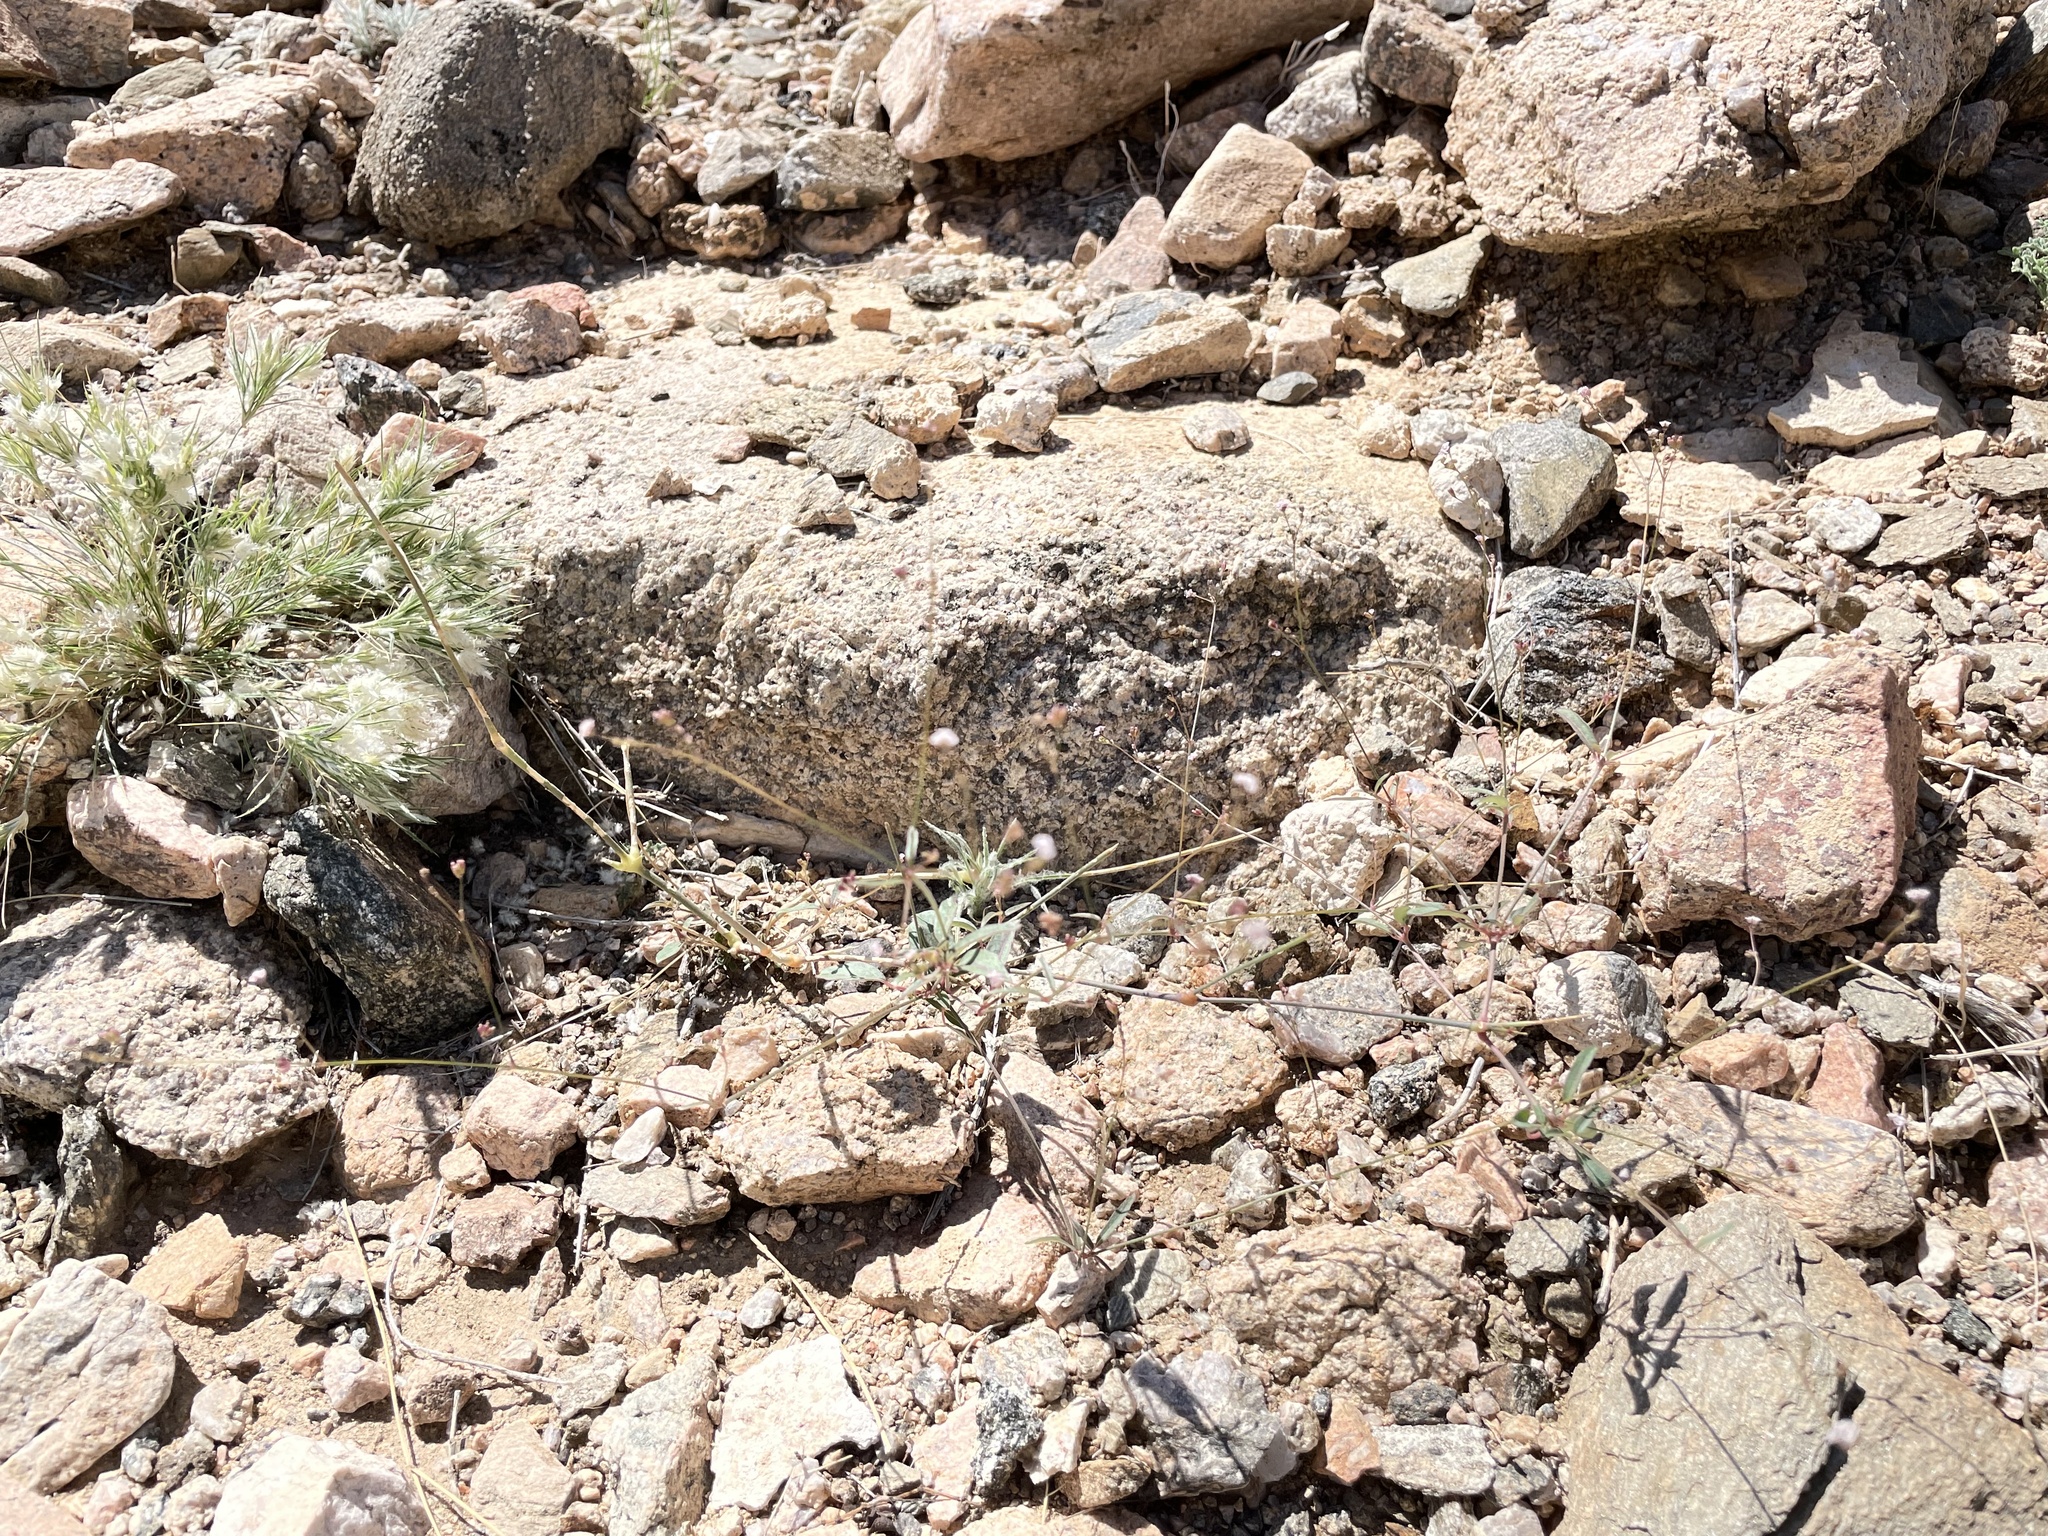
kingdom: Plantae
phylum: Tracheophyta
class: Magnoliopsida
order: Caryophyllales
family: Nyctaginaceae
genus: Boerhavia
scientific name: Boerhavia triquetra
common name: Creeping sticky-stem
